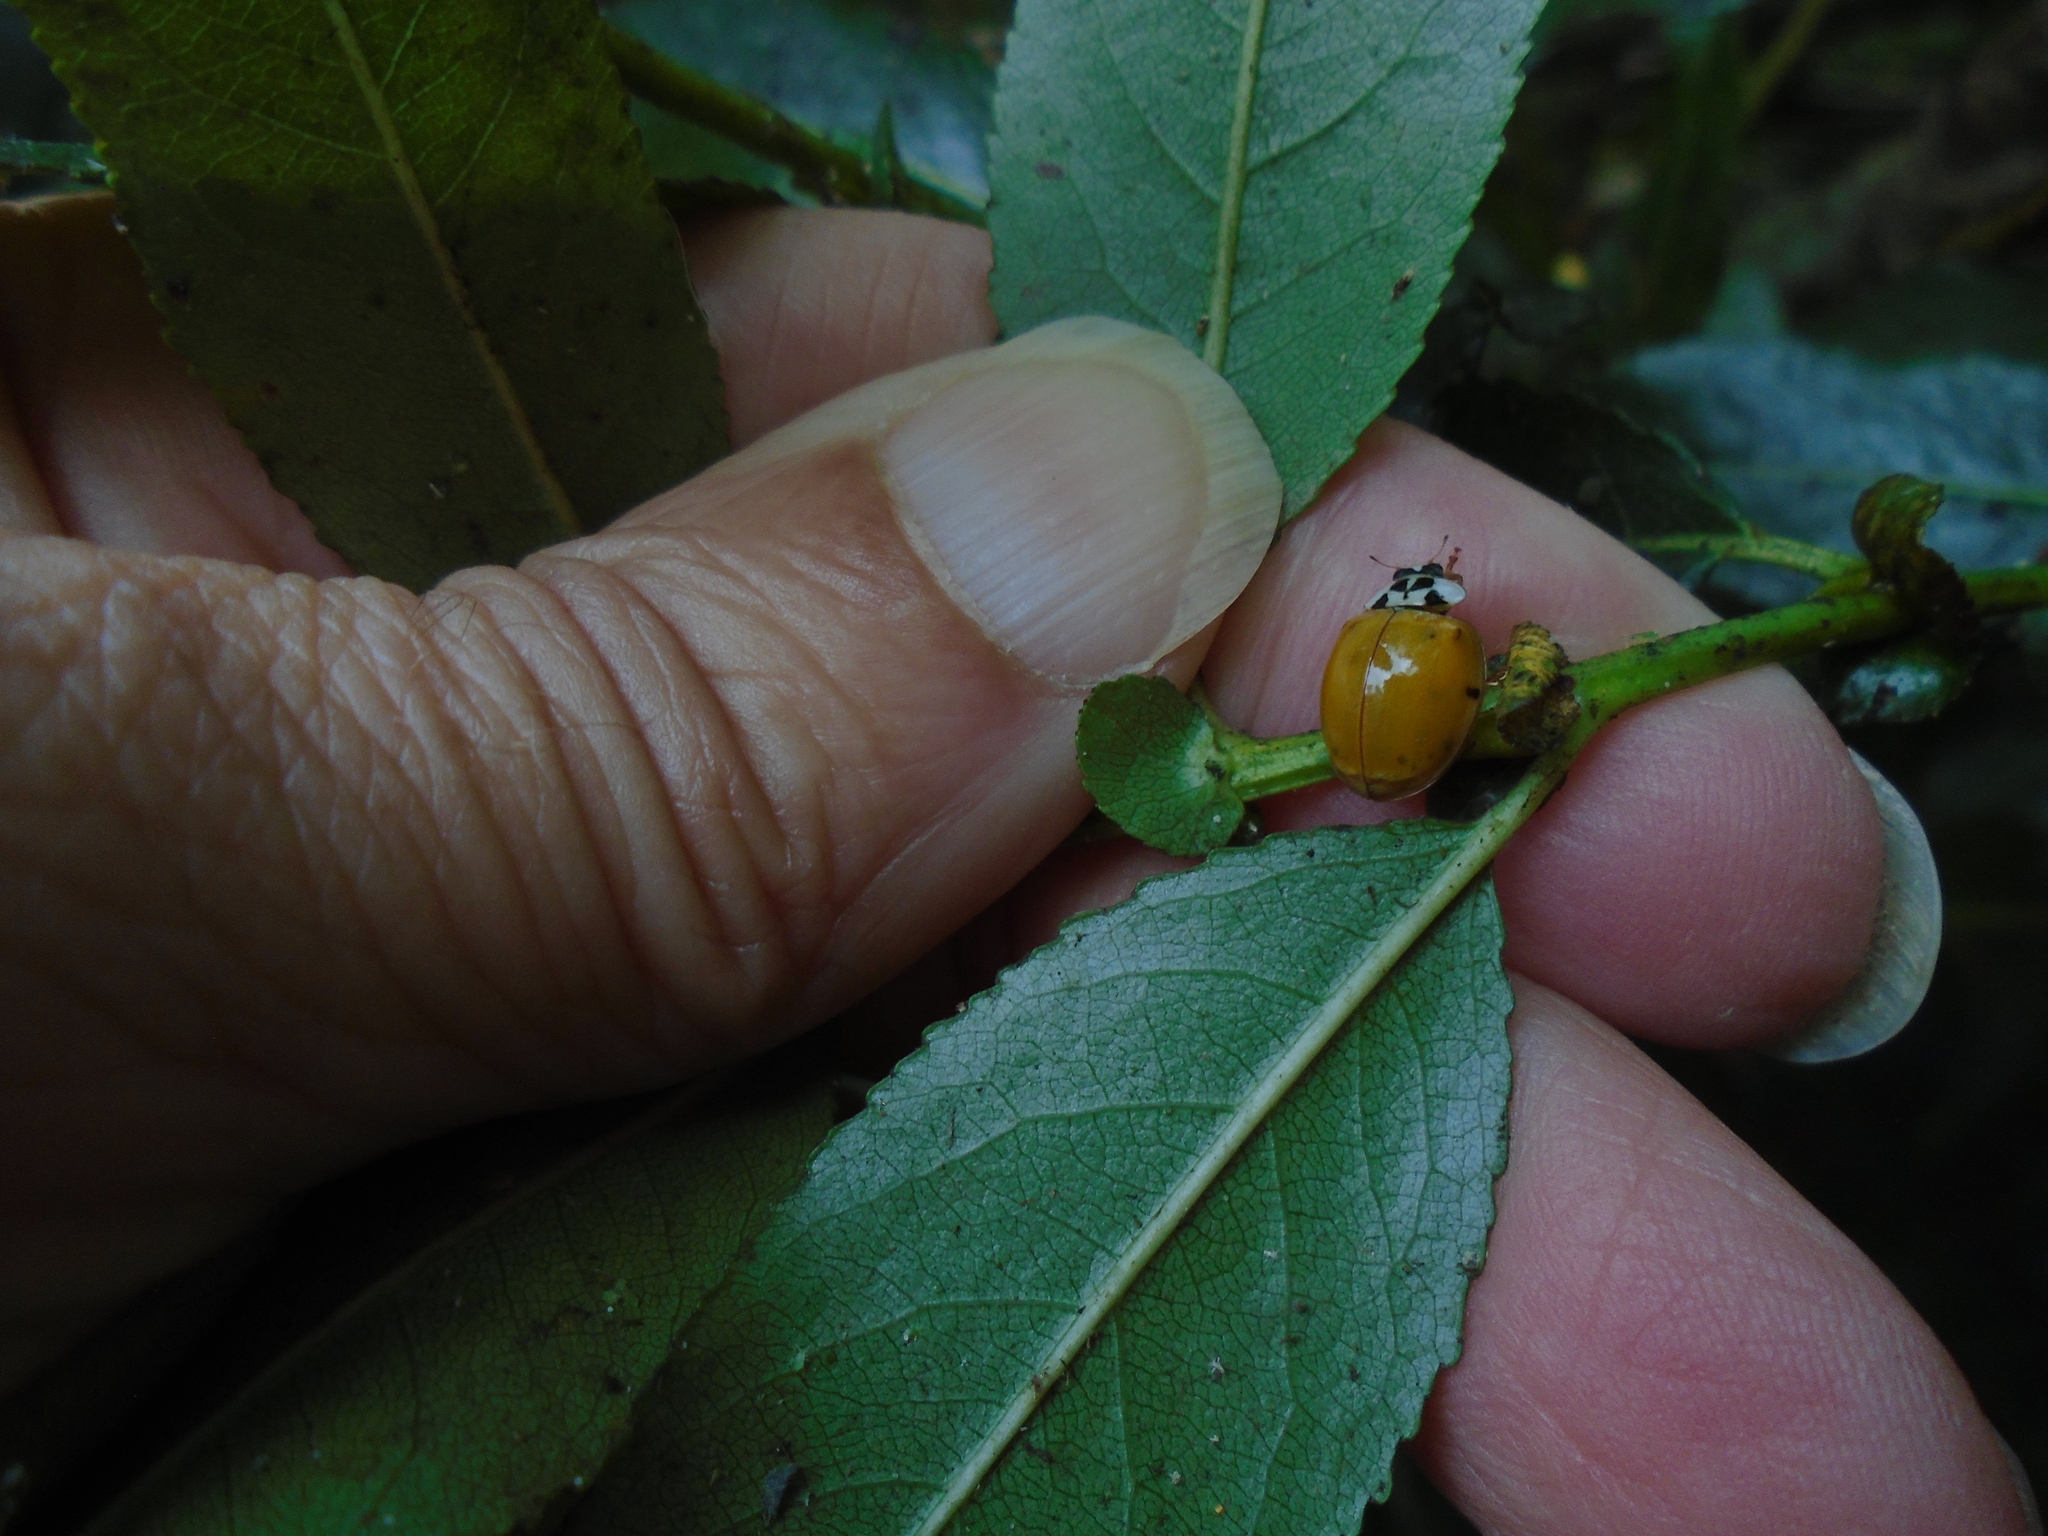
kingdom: Animalia
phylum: Arthropoda
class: Insecta
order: Coleoptera
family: Coccinellidae
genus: Harmonia
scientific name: Harmonia axyridis
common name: Harlequin ladybird
